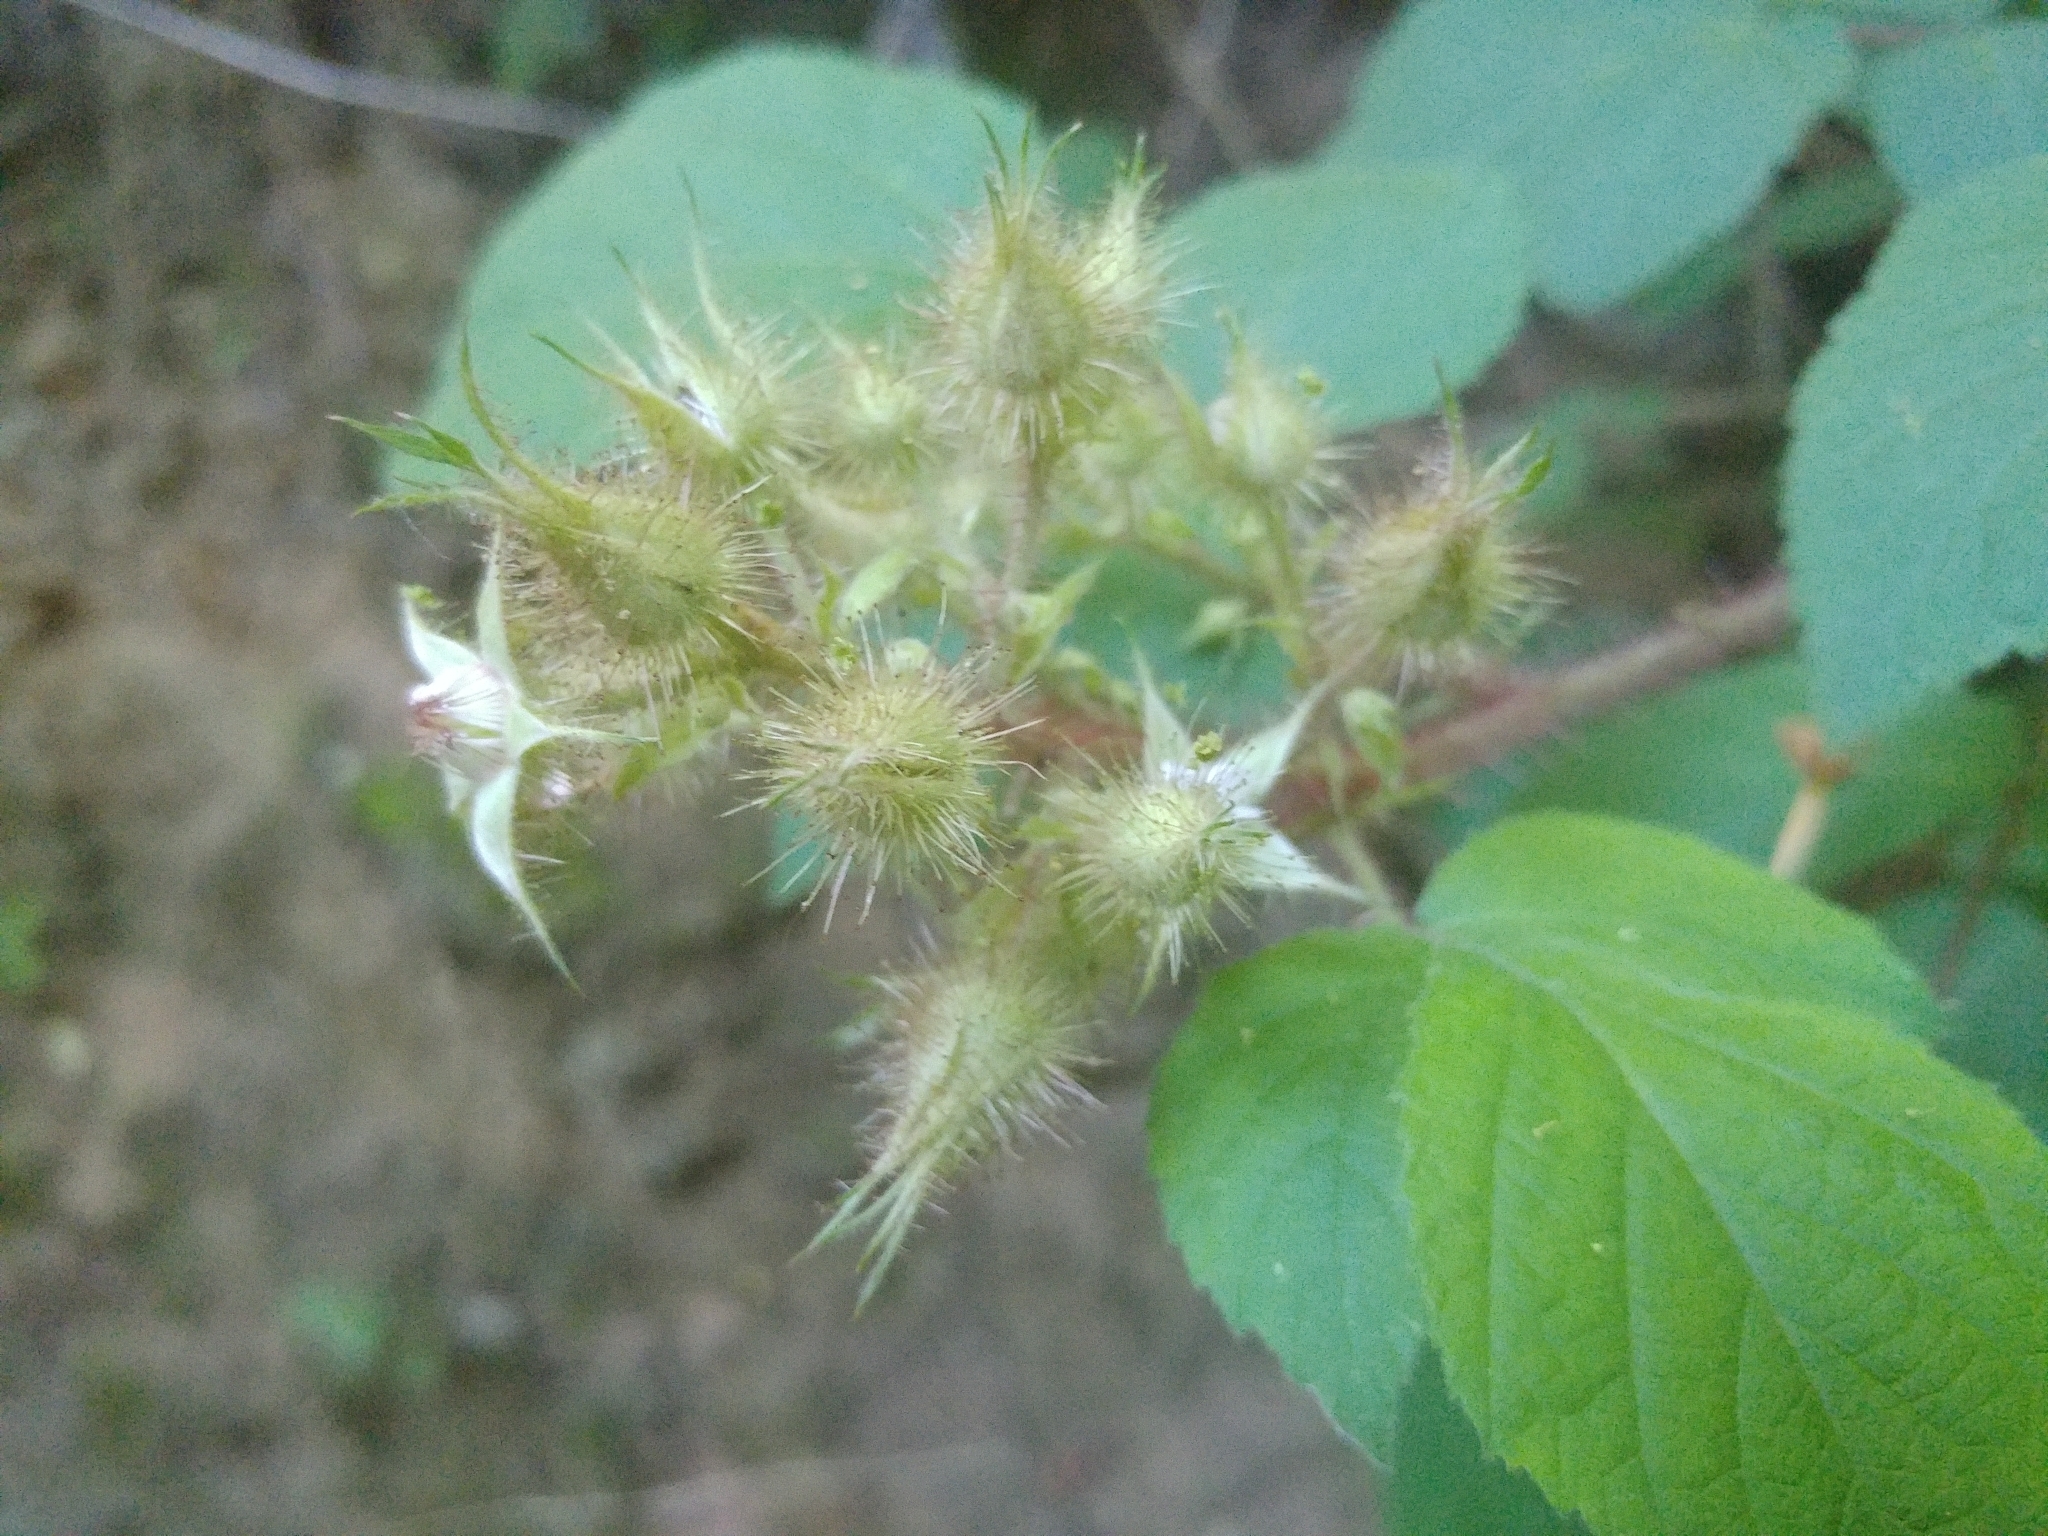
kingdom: Plantae
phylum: Tracheophyta
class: Magnoliopsida
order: Rosales
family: Rosaceae
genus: Rubus
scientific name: Rubus phoenicolasius
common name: Japanese wineberry
